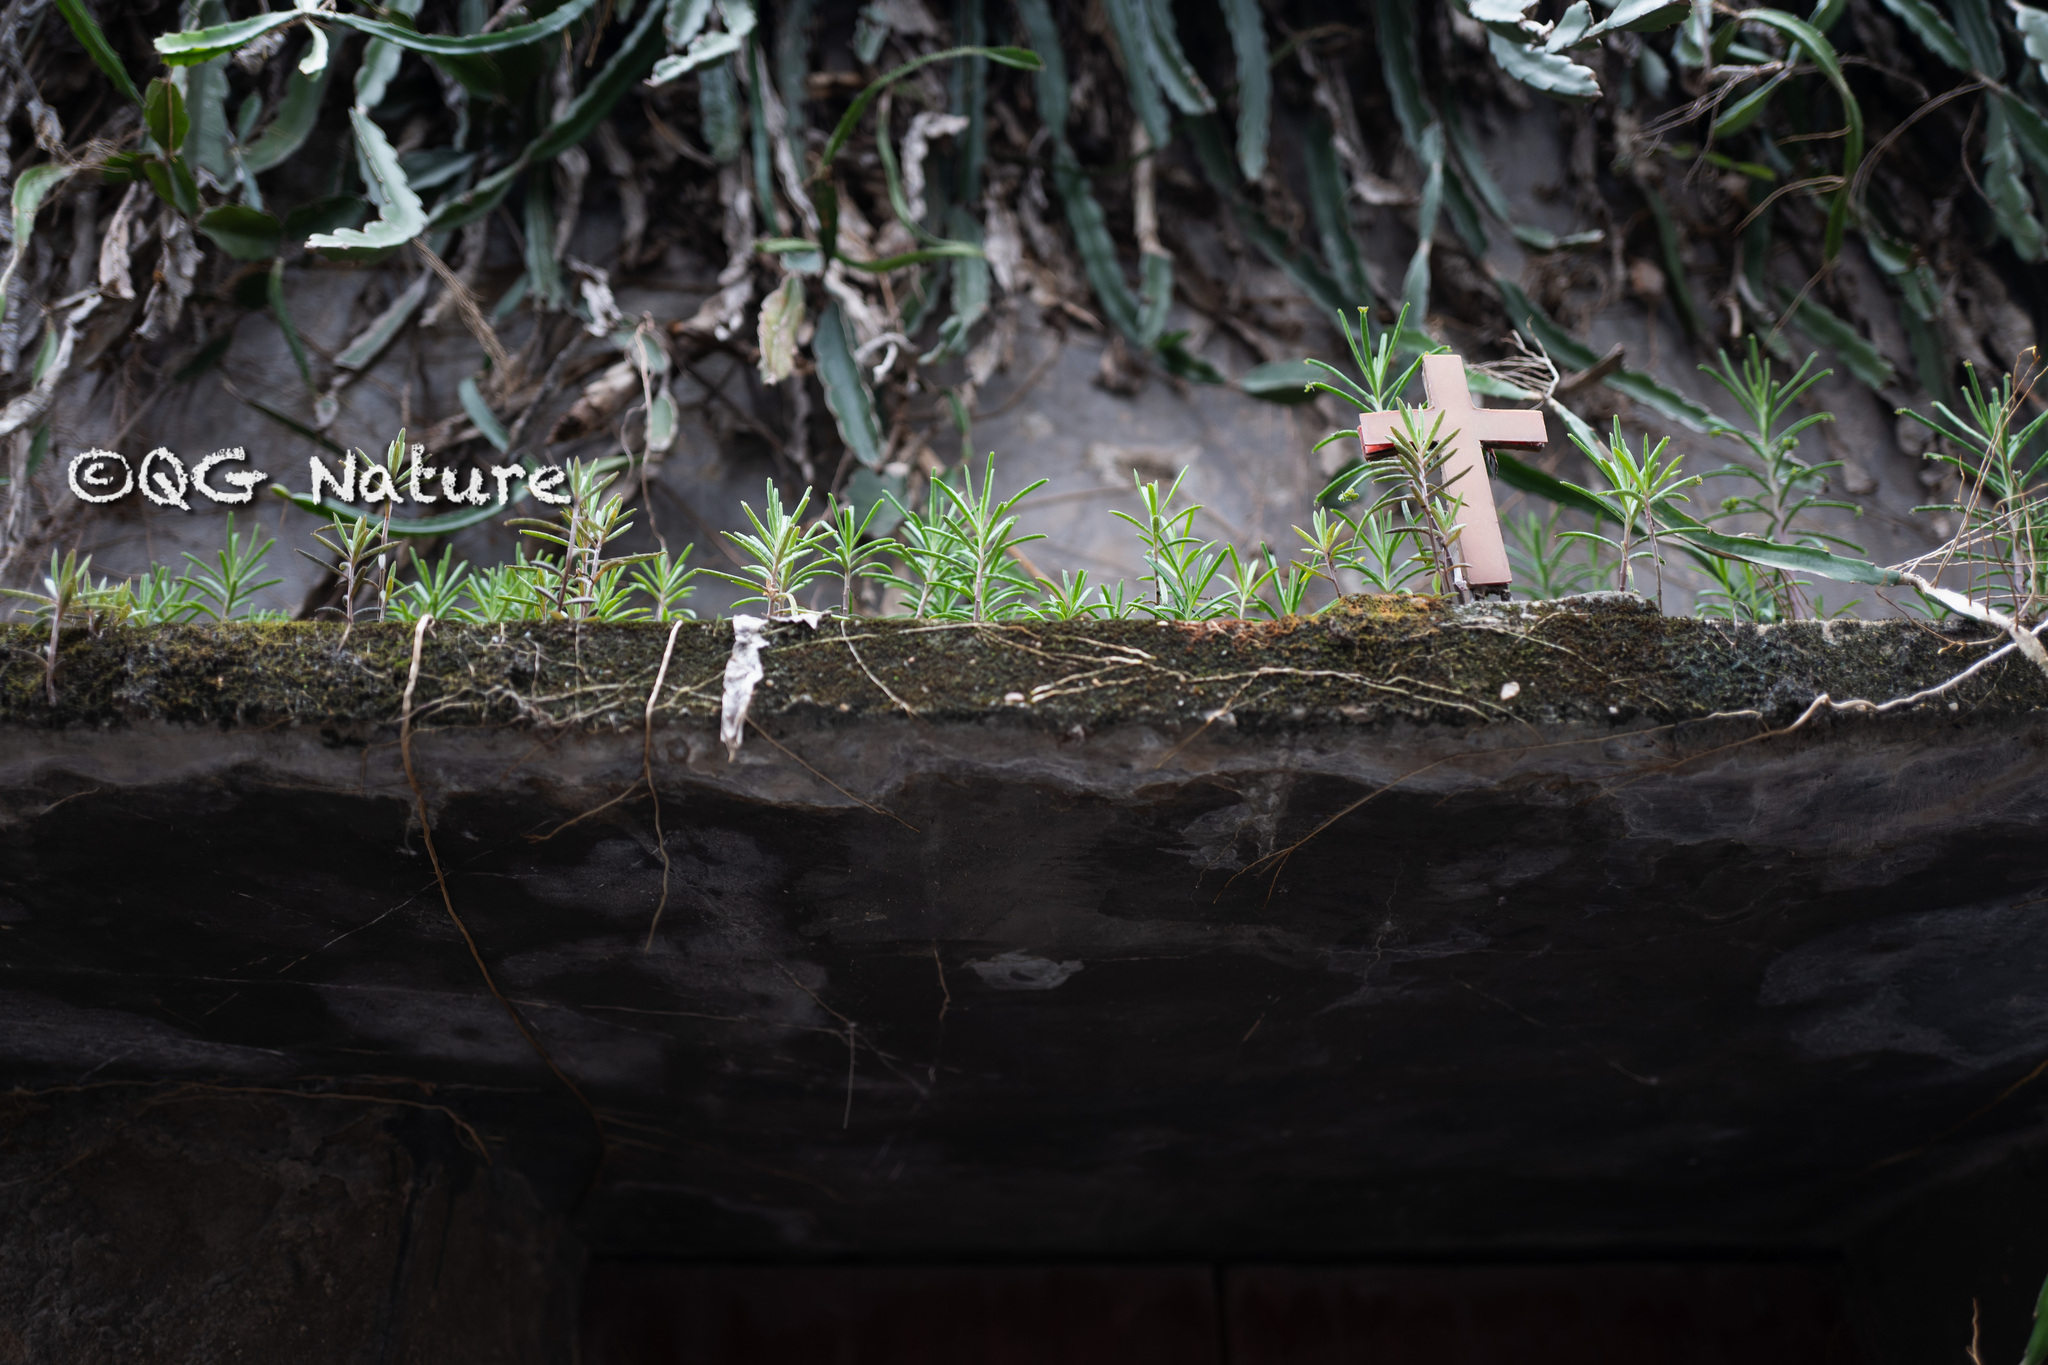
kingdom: Plantae
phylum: Tracheophyta
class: Magnoliopsida
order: Saxifragales
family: Crassulaceae
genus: Kalanchoe
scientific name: Kalanchoe delagoensis
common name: Chandelier plant
